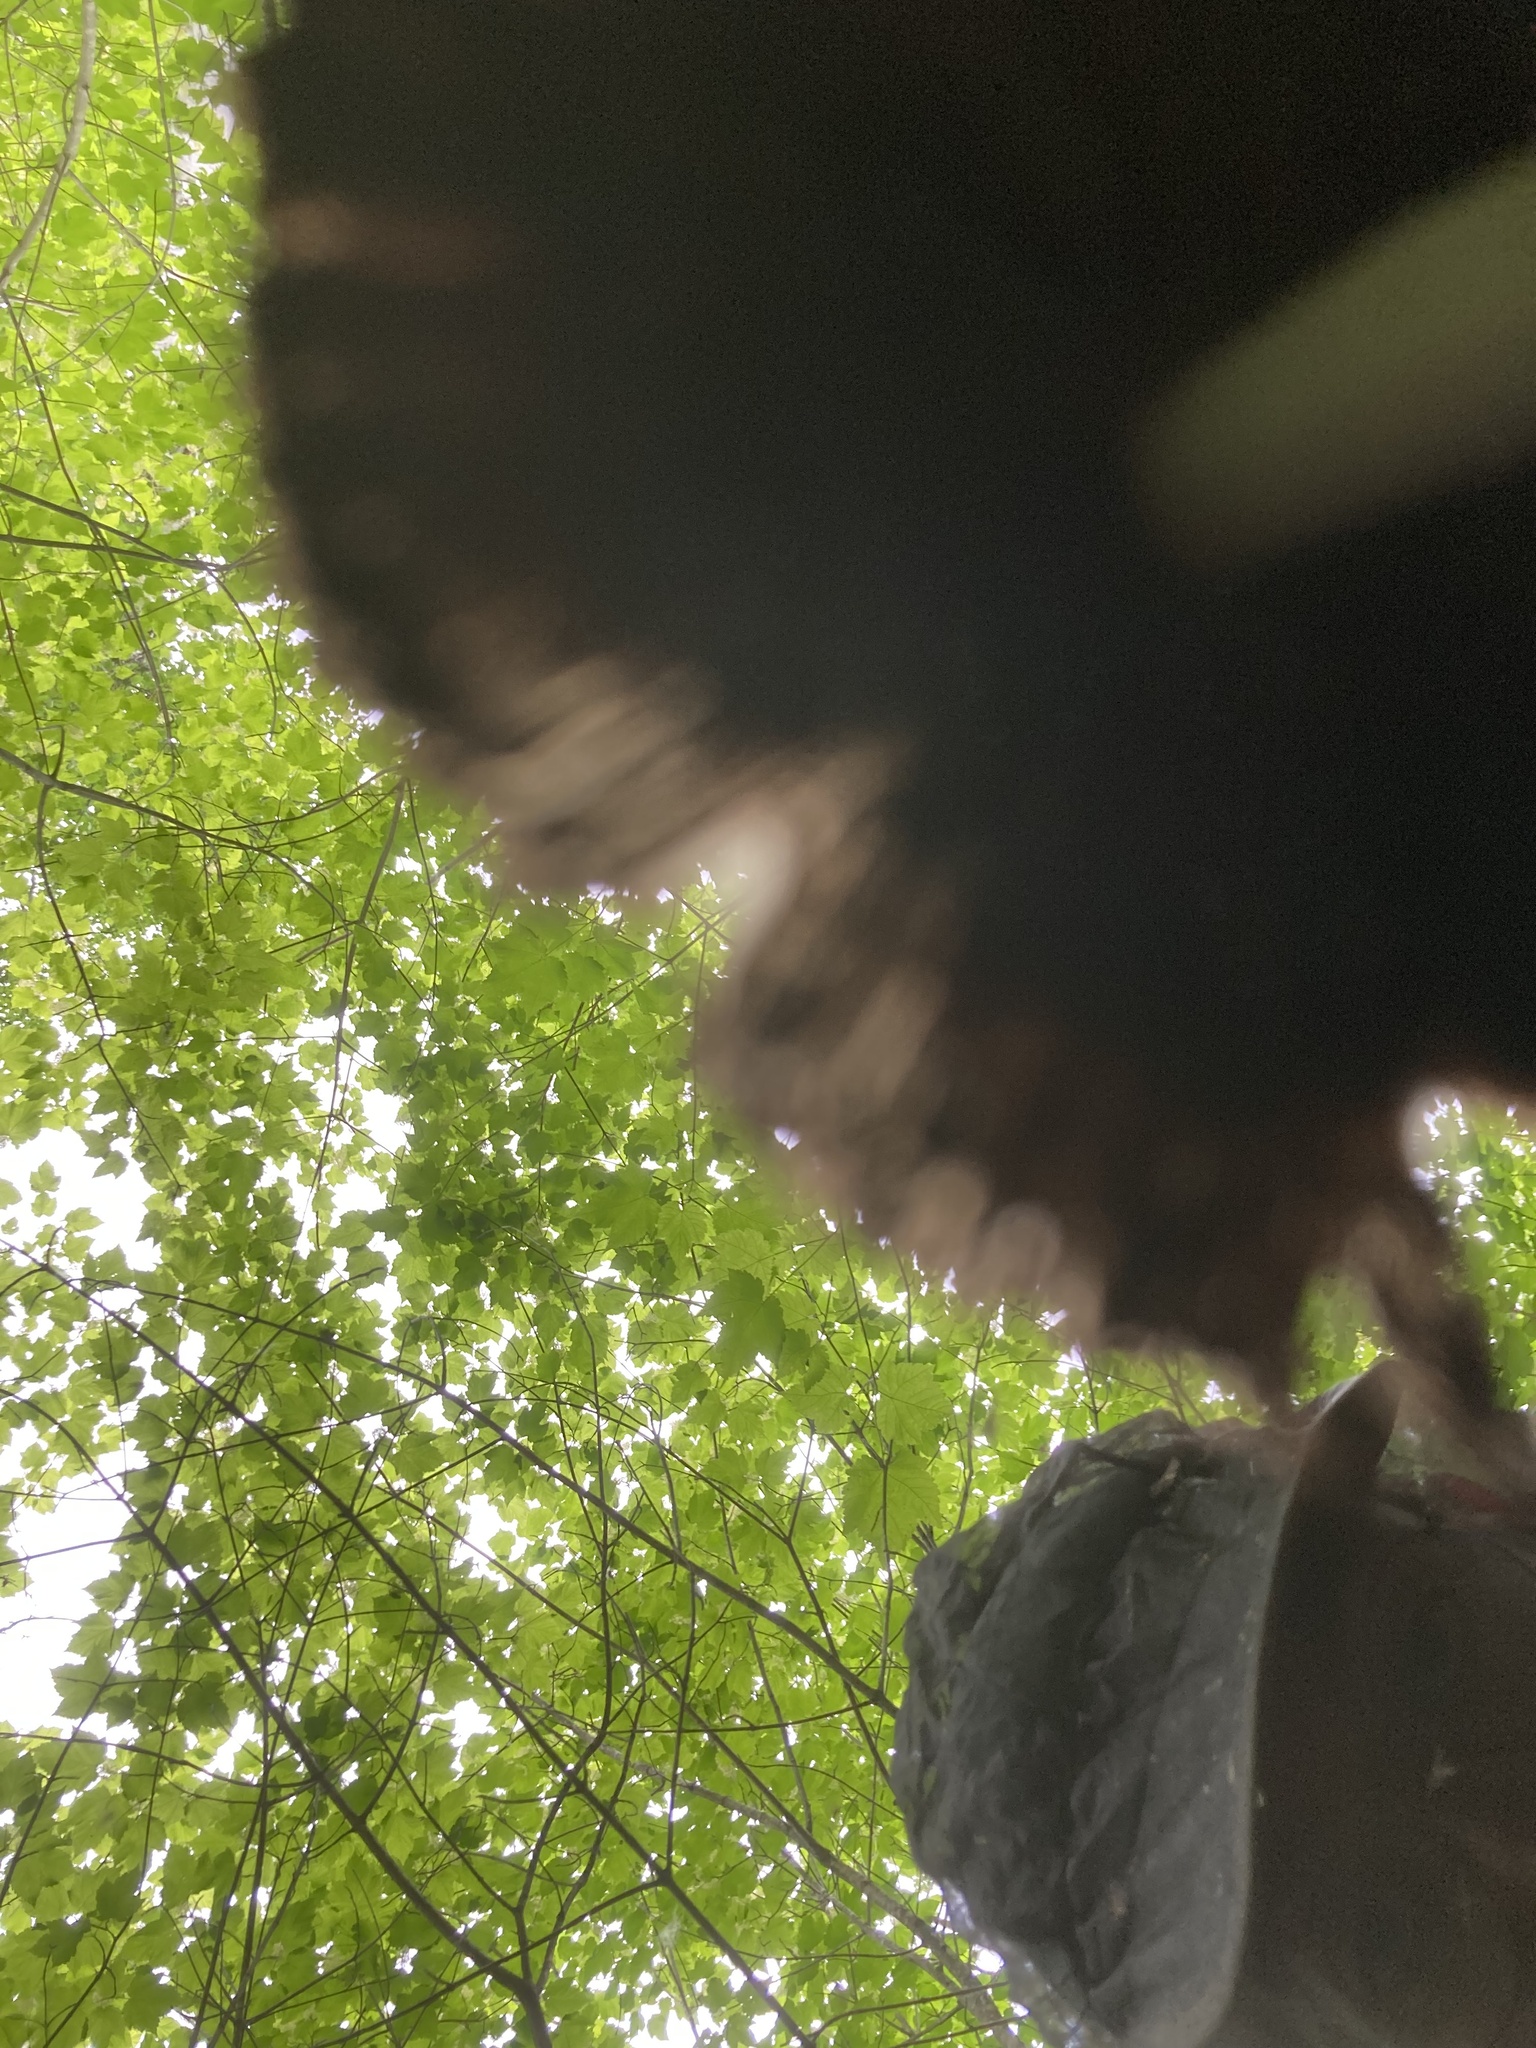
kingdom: Fungi
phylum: Basidiomycota
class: Agaricomycetes
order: Agaricales
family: Psathyrellaceae
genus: Coprinopsis
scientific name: Coprinopsis variegata
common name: Scaly ink cap
